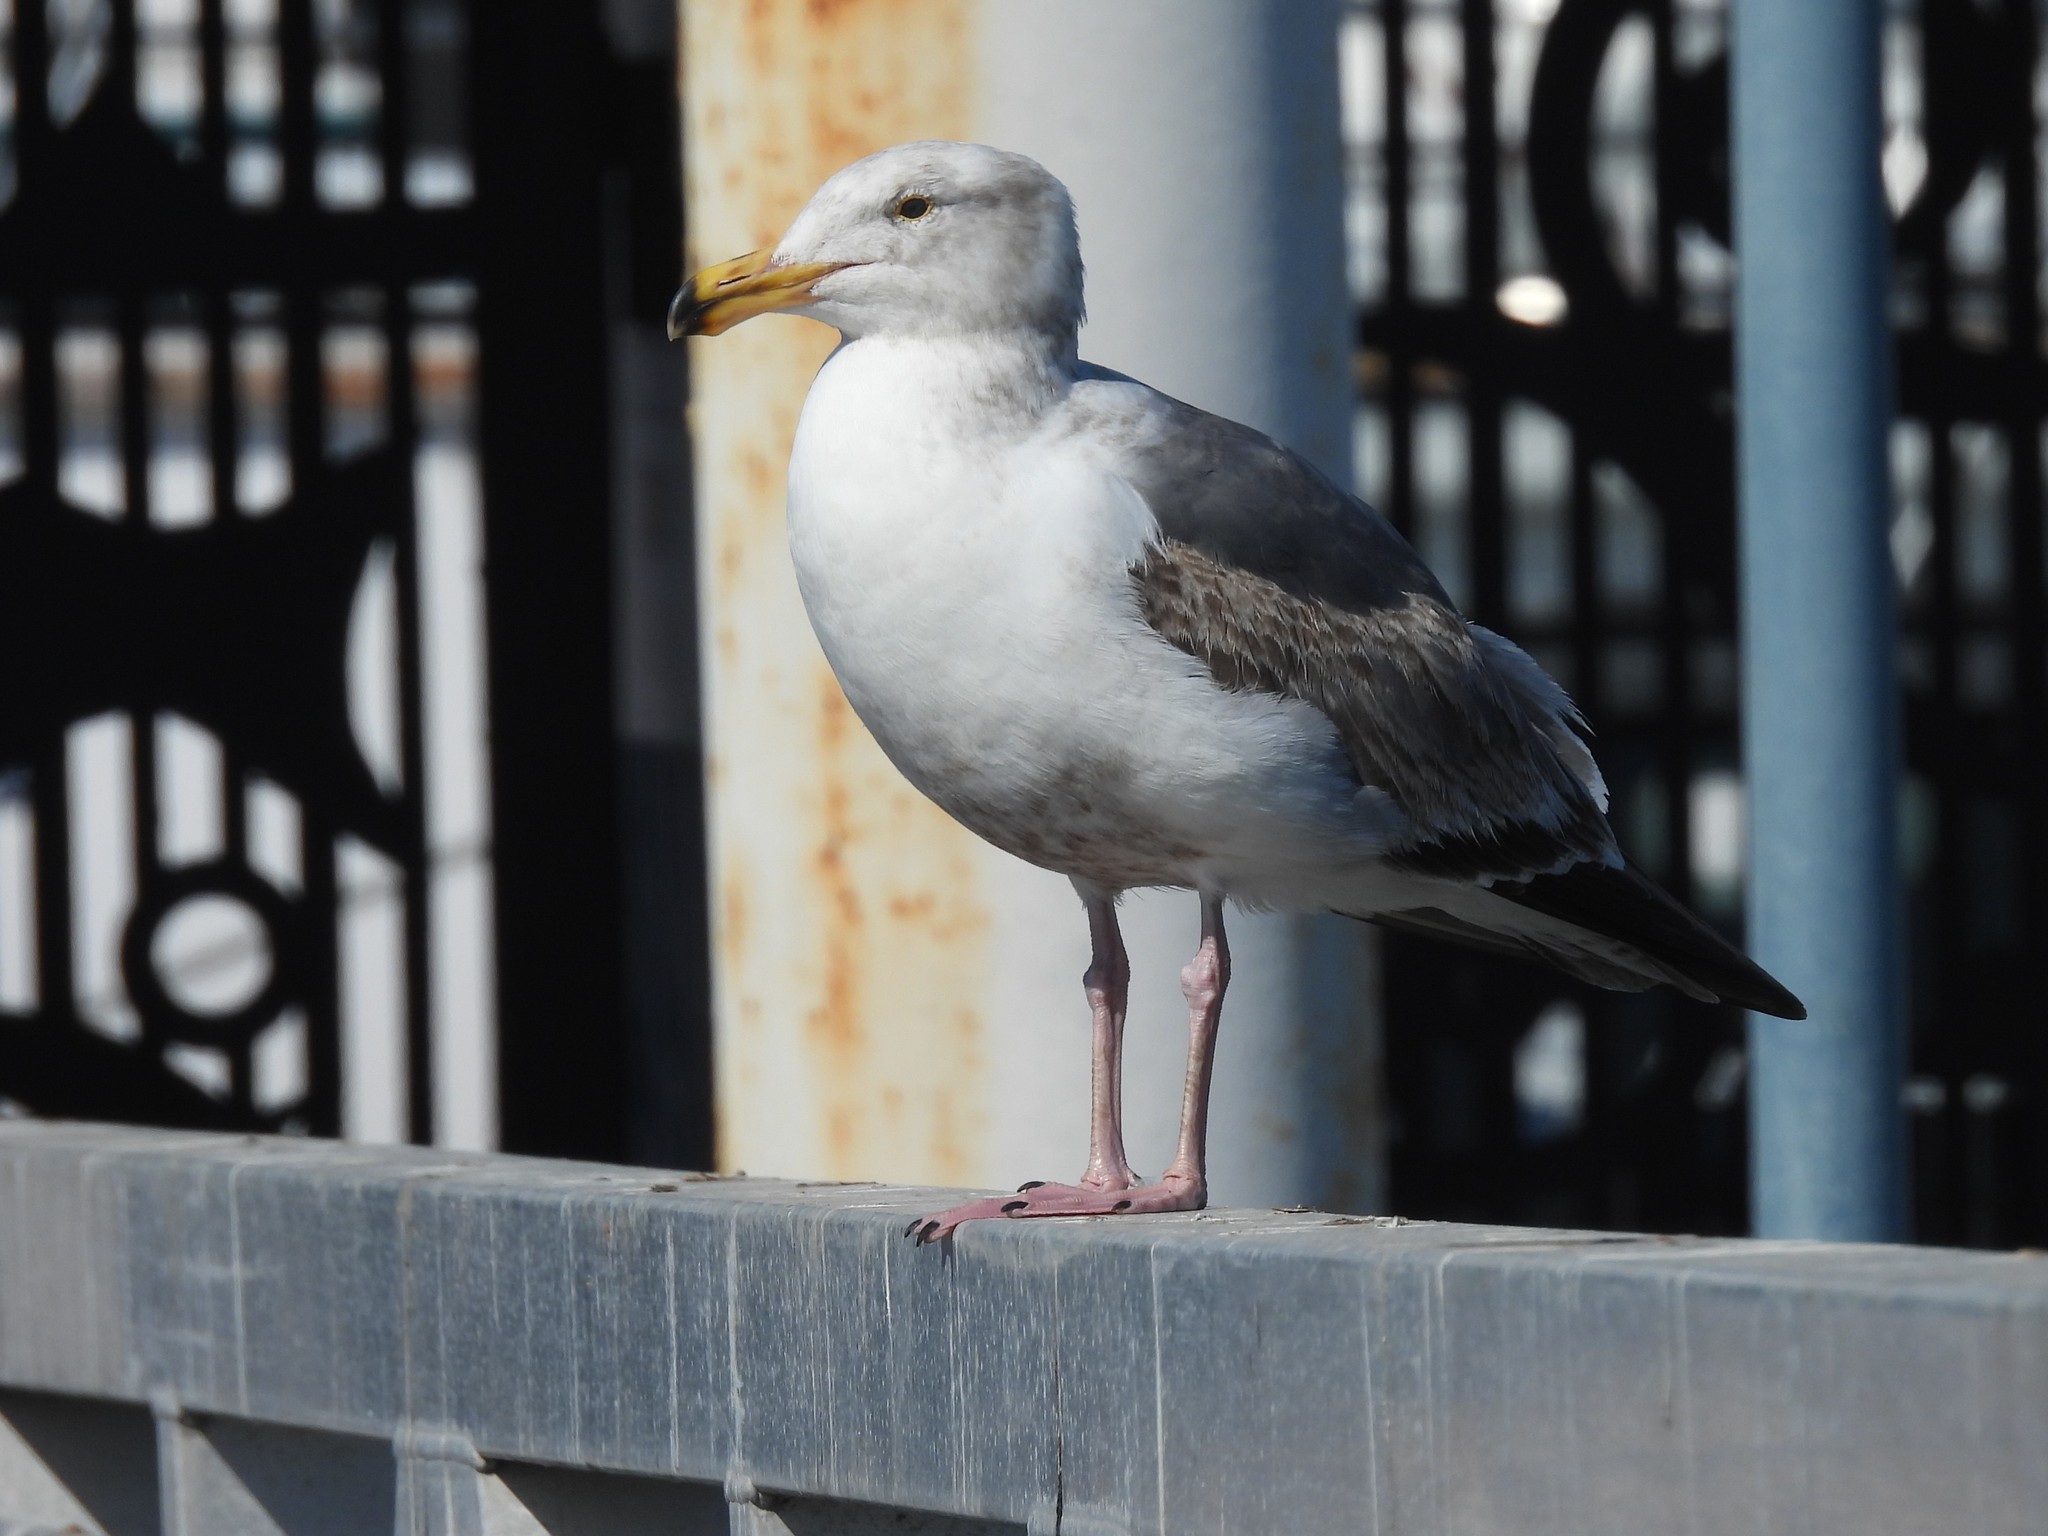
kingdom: Animalia
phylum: Chordata
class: Aves
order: Charadriiformes
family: Laridae
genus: Larus
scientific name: Larus occidentalis
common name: Western gull
